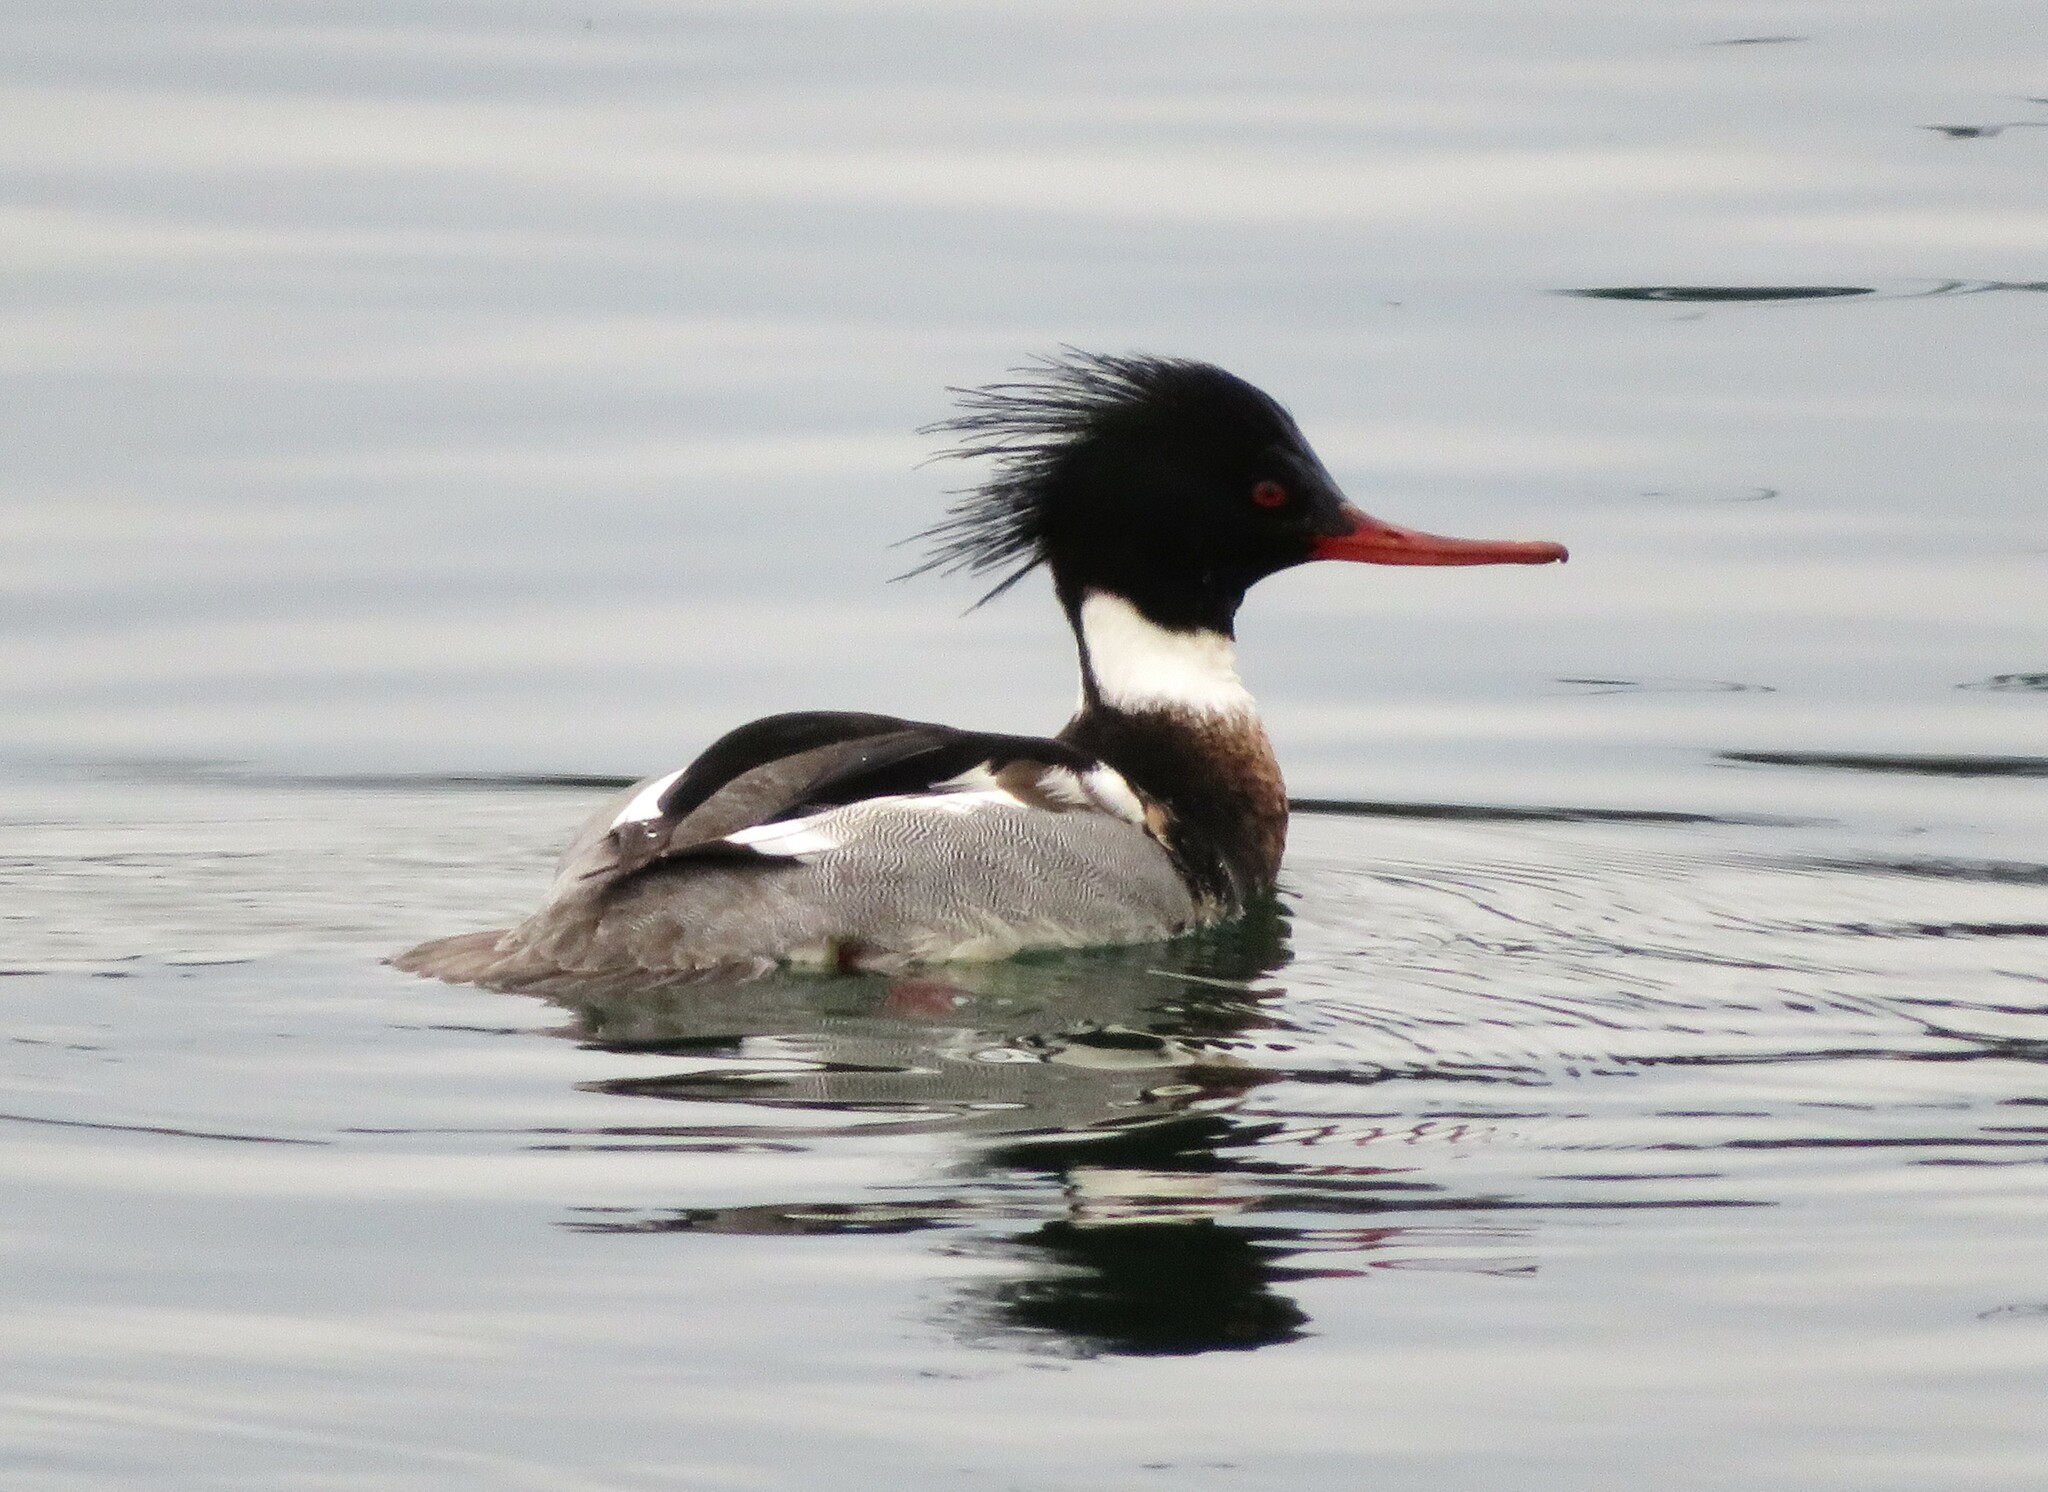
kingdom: Animalia
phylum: Chordata
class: Aves
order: Anseriformes
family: Anatidae
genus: Mergus
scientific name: Mergus serrator
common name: Red-breasted merganser
